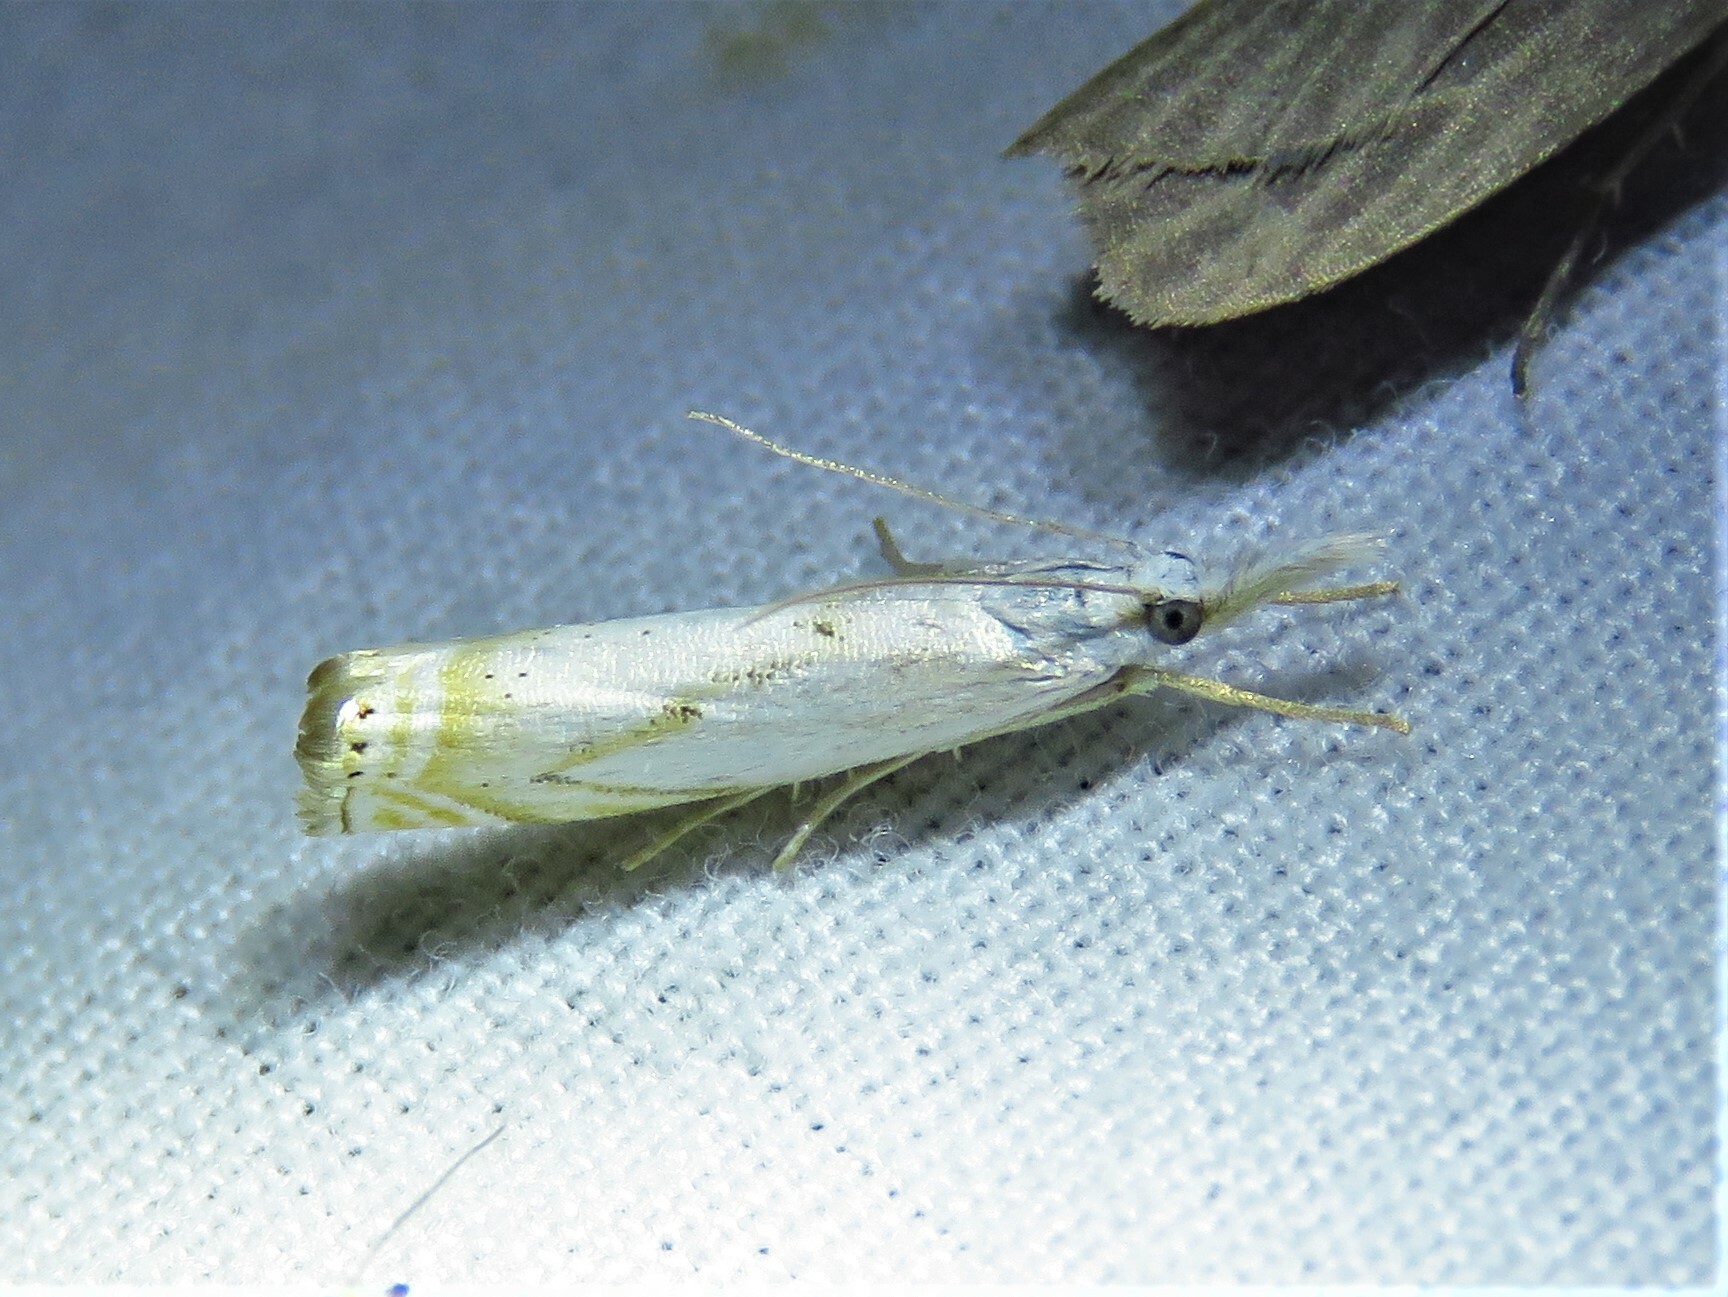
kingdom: Animalia
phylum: Arthropoda
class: Insecta
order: Lepidoptera
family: Crambidae
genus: Crambus
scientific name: Crambus albellus
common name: Small white grass-veneer
